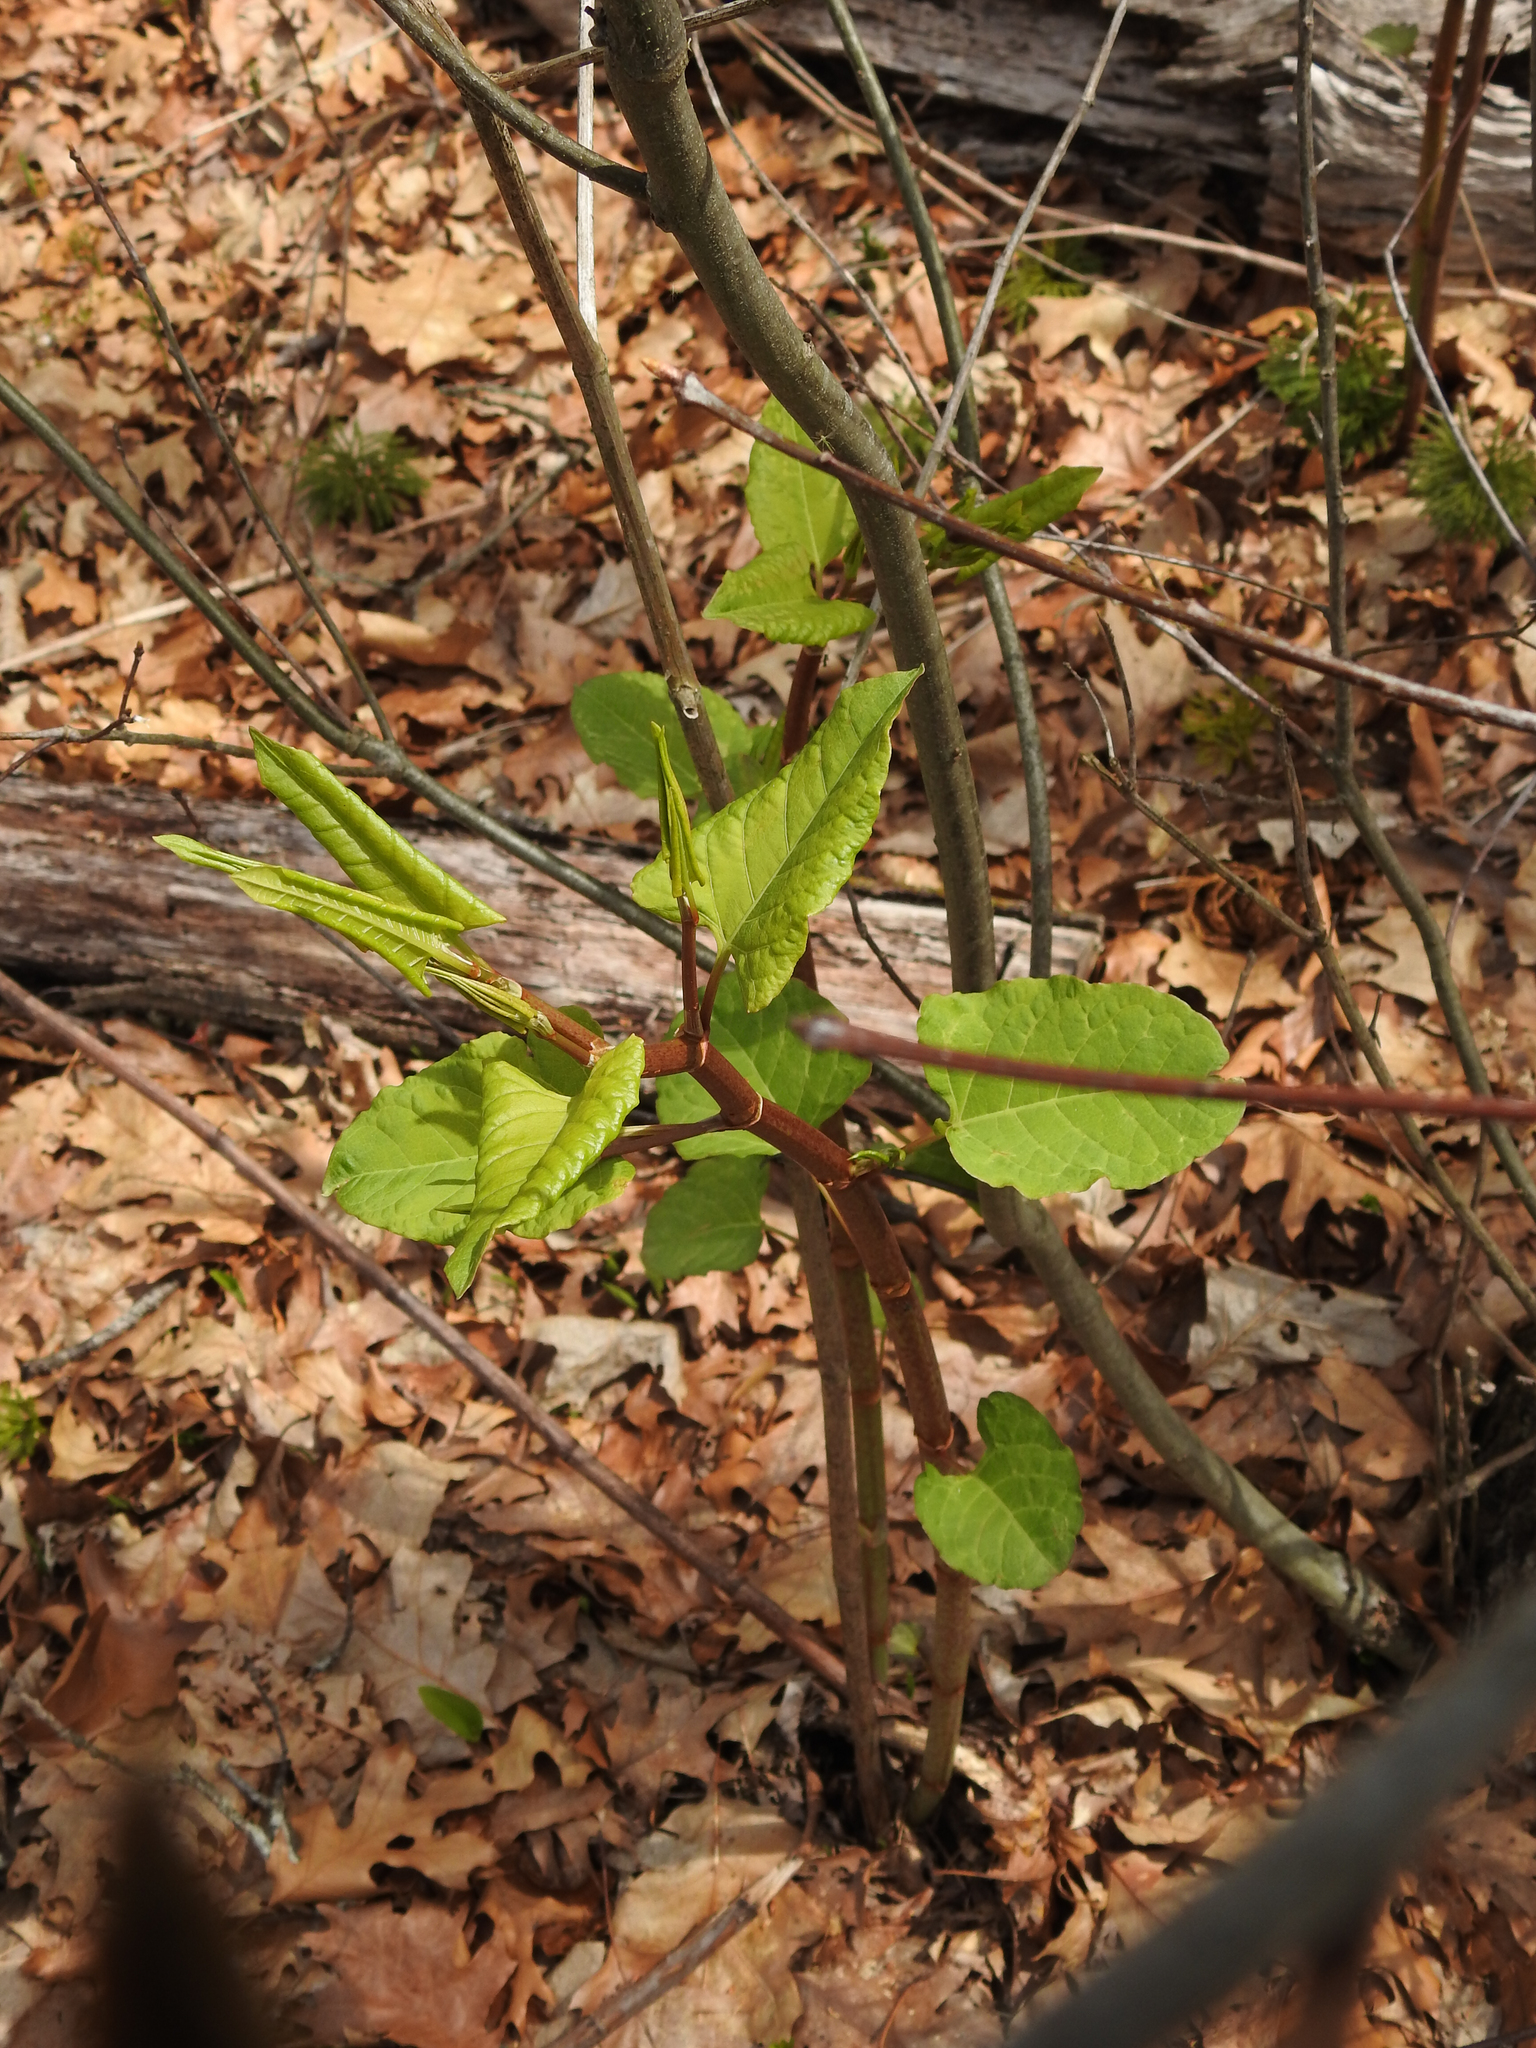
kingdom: Plantae
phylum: Tracheophyta
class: Magnoliopsida
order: Caryophyllales
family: Polygonaceae
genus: Reynoutria
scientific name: Reynoutria japonica
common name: Japanese knotweed
